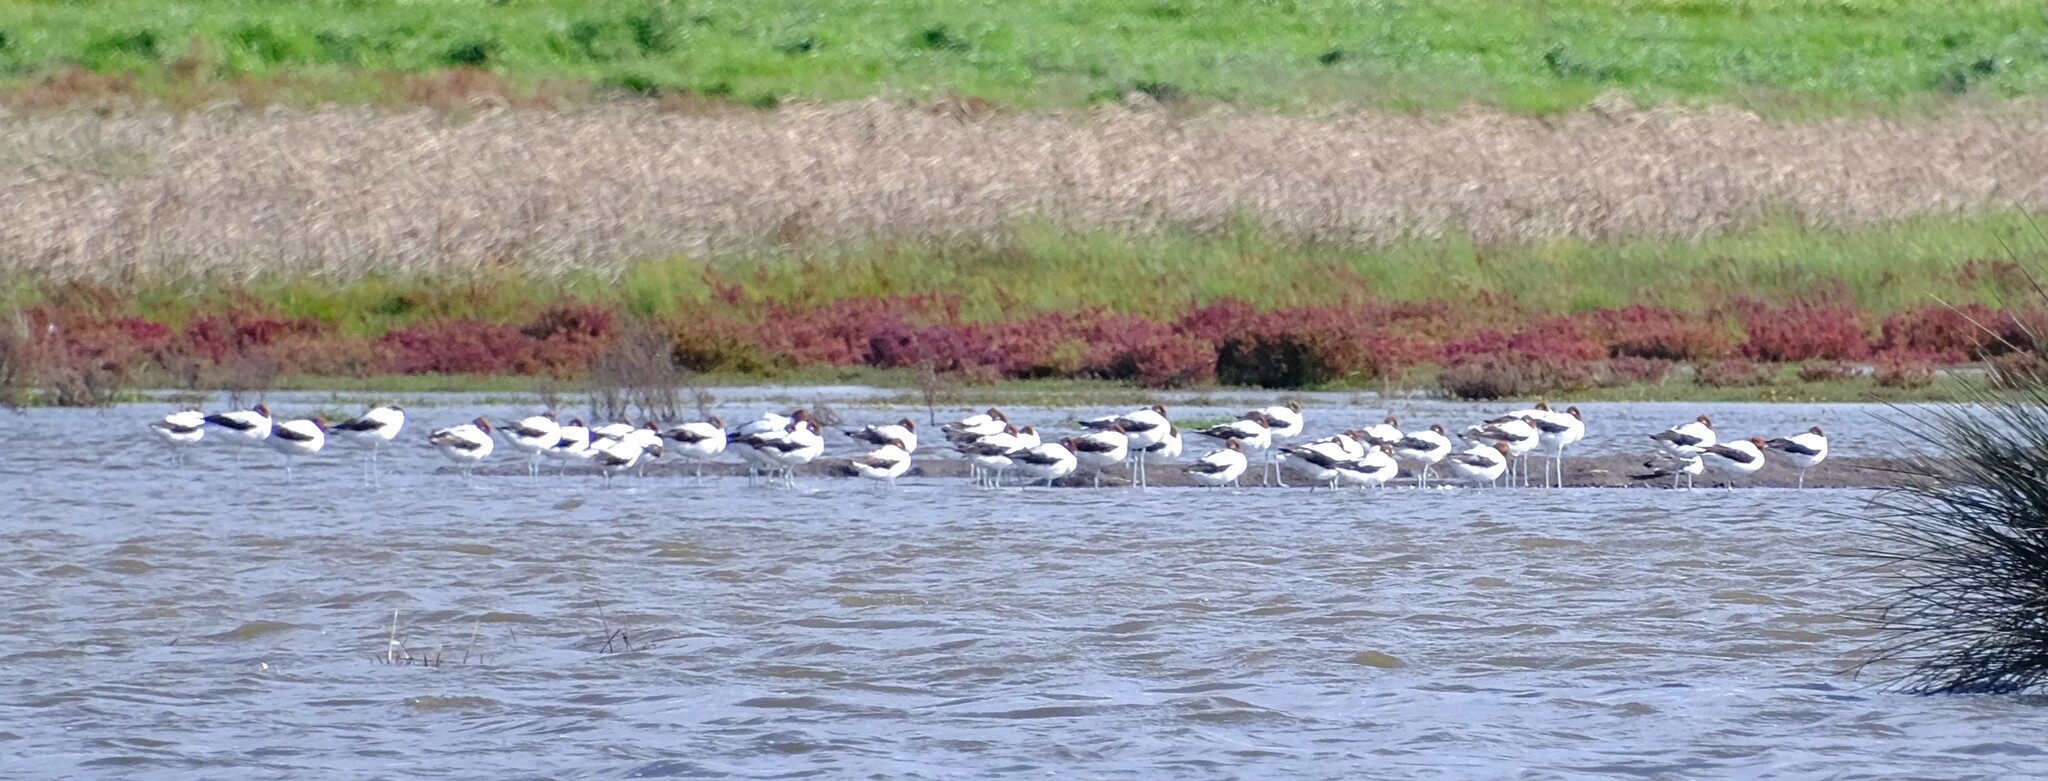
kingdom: Animalia
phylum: Chordata
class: Aves
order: Charadriiformes
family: Recurvirostridae
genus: Recurvirostra
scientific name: Recurvirostra novaehollandiae
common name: Red-necked avocet
